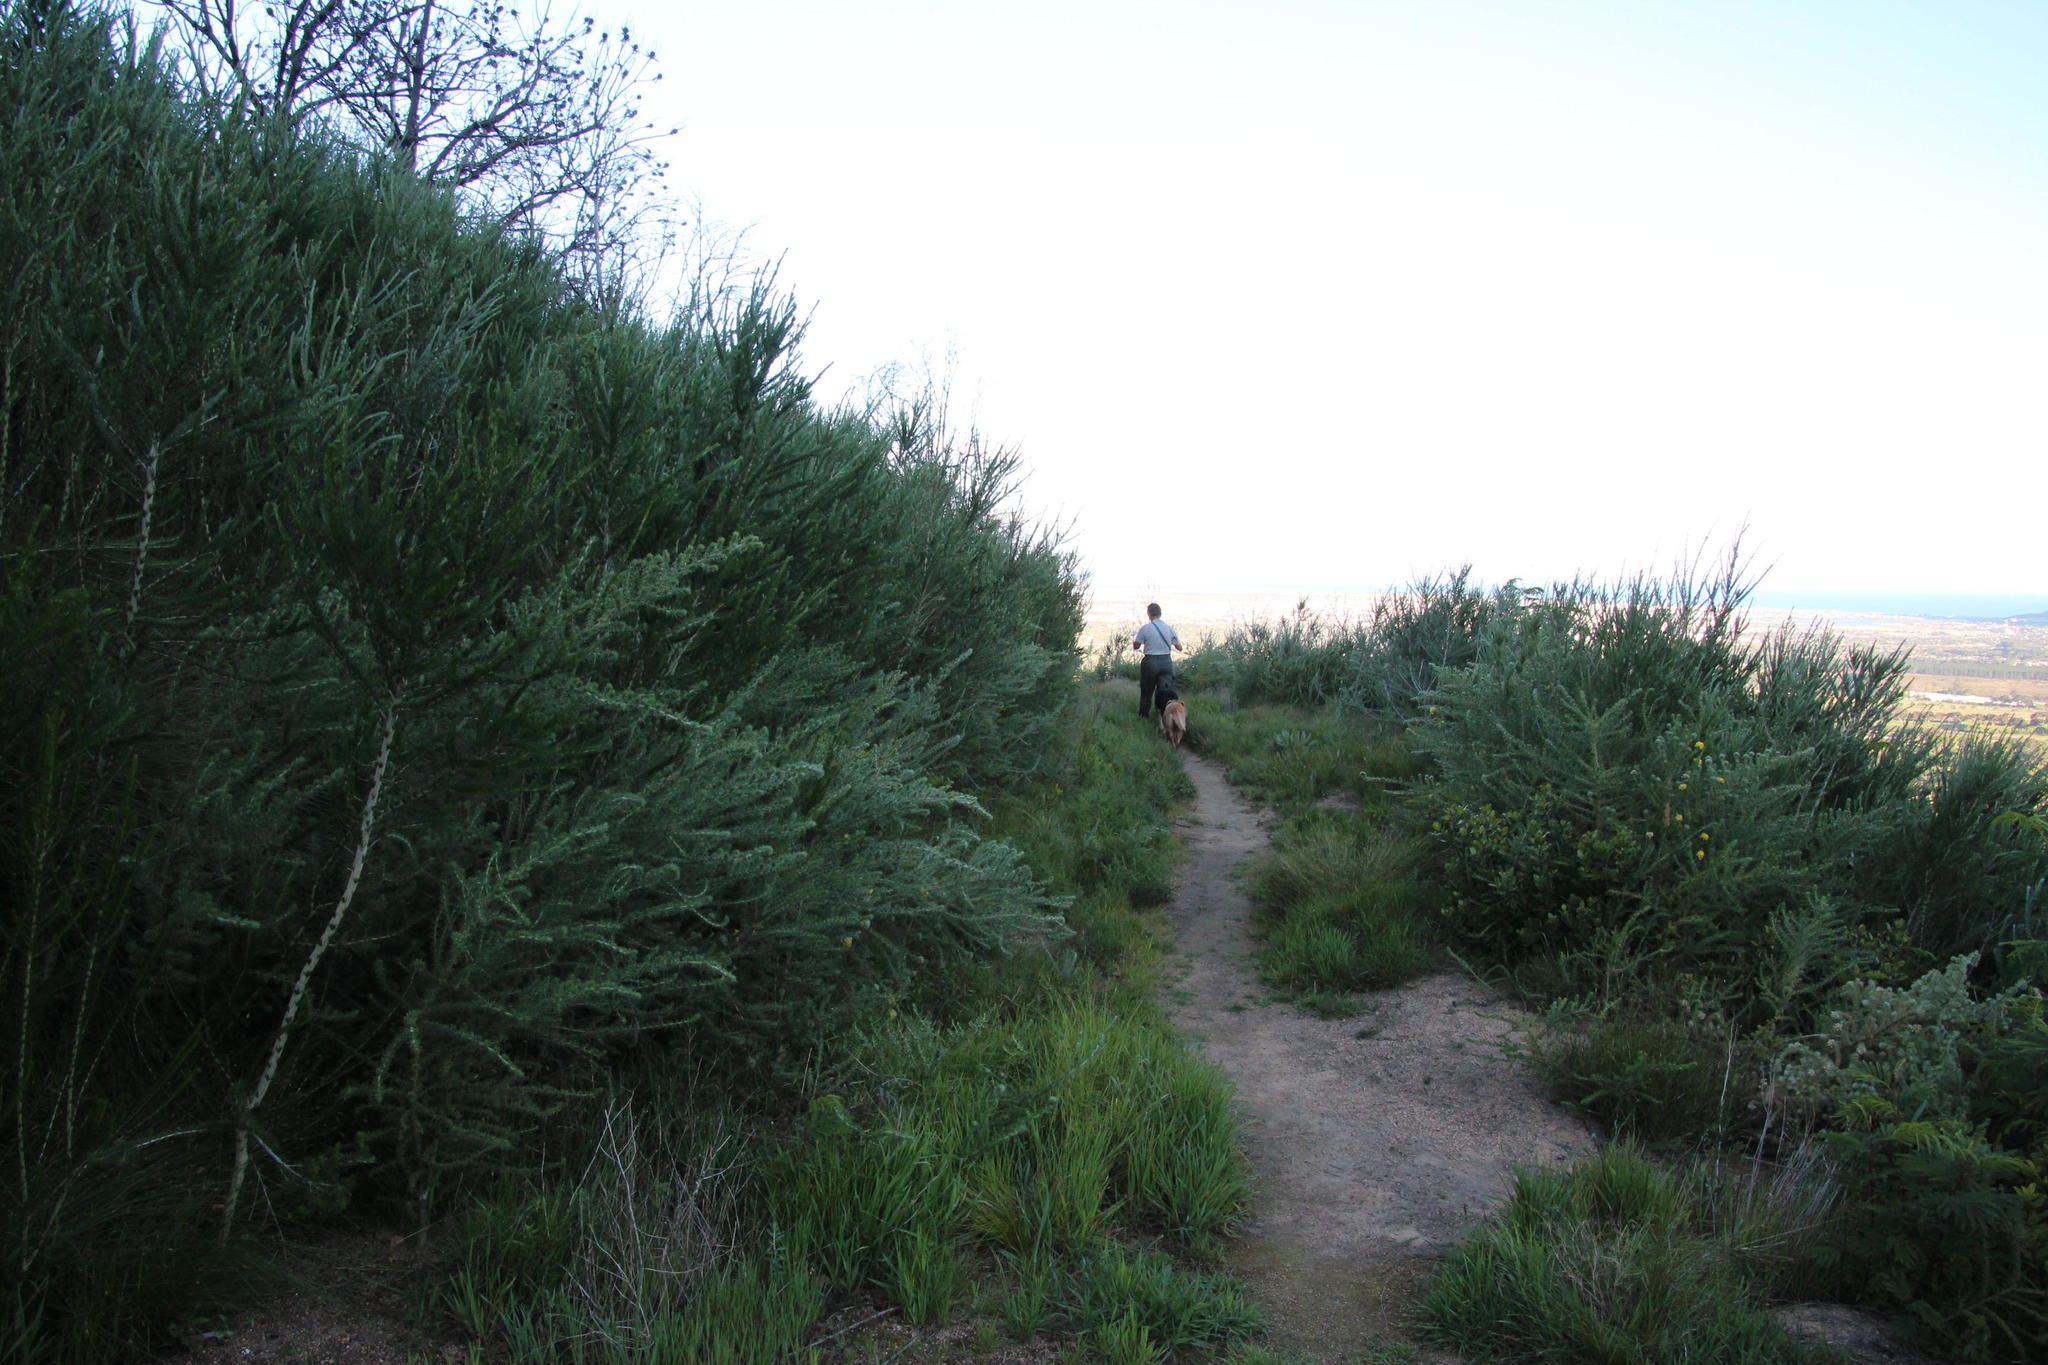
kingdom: Plantae
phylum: Tracheophyta
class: Magnoliopsida
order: Fabales
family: Fabaceae
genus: Aspalathus
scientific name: Aspalathus chenopoda
